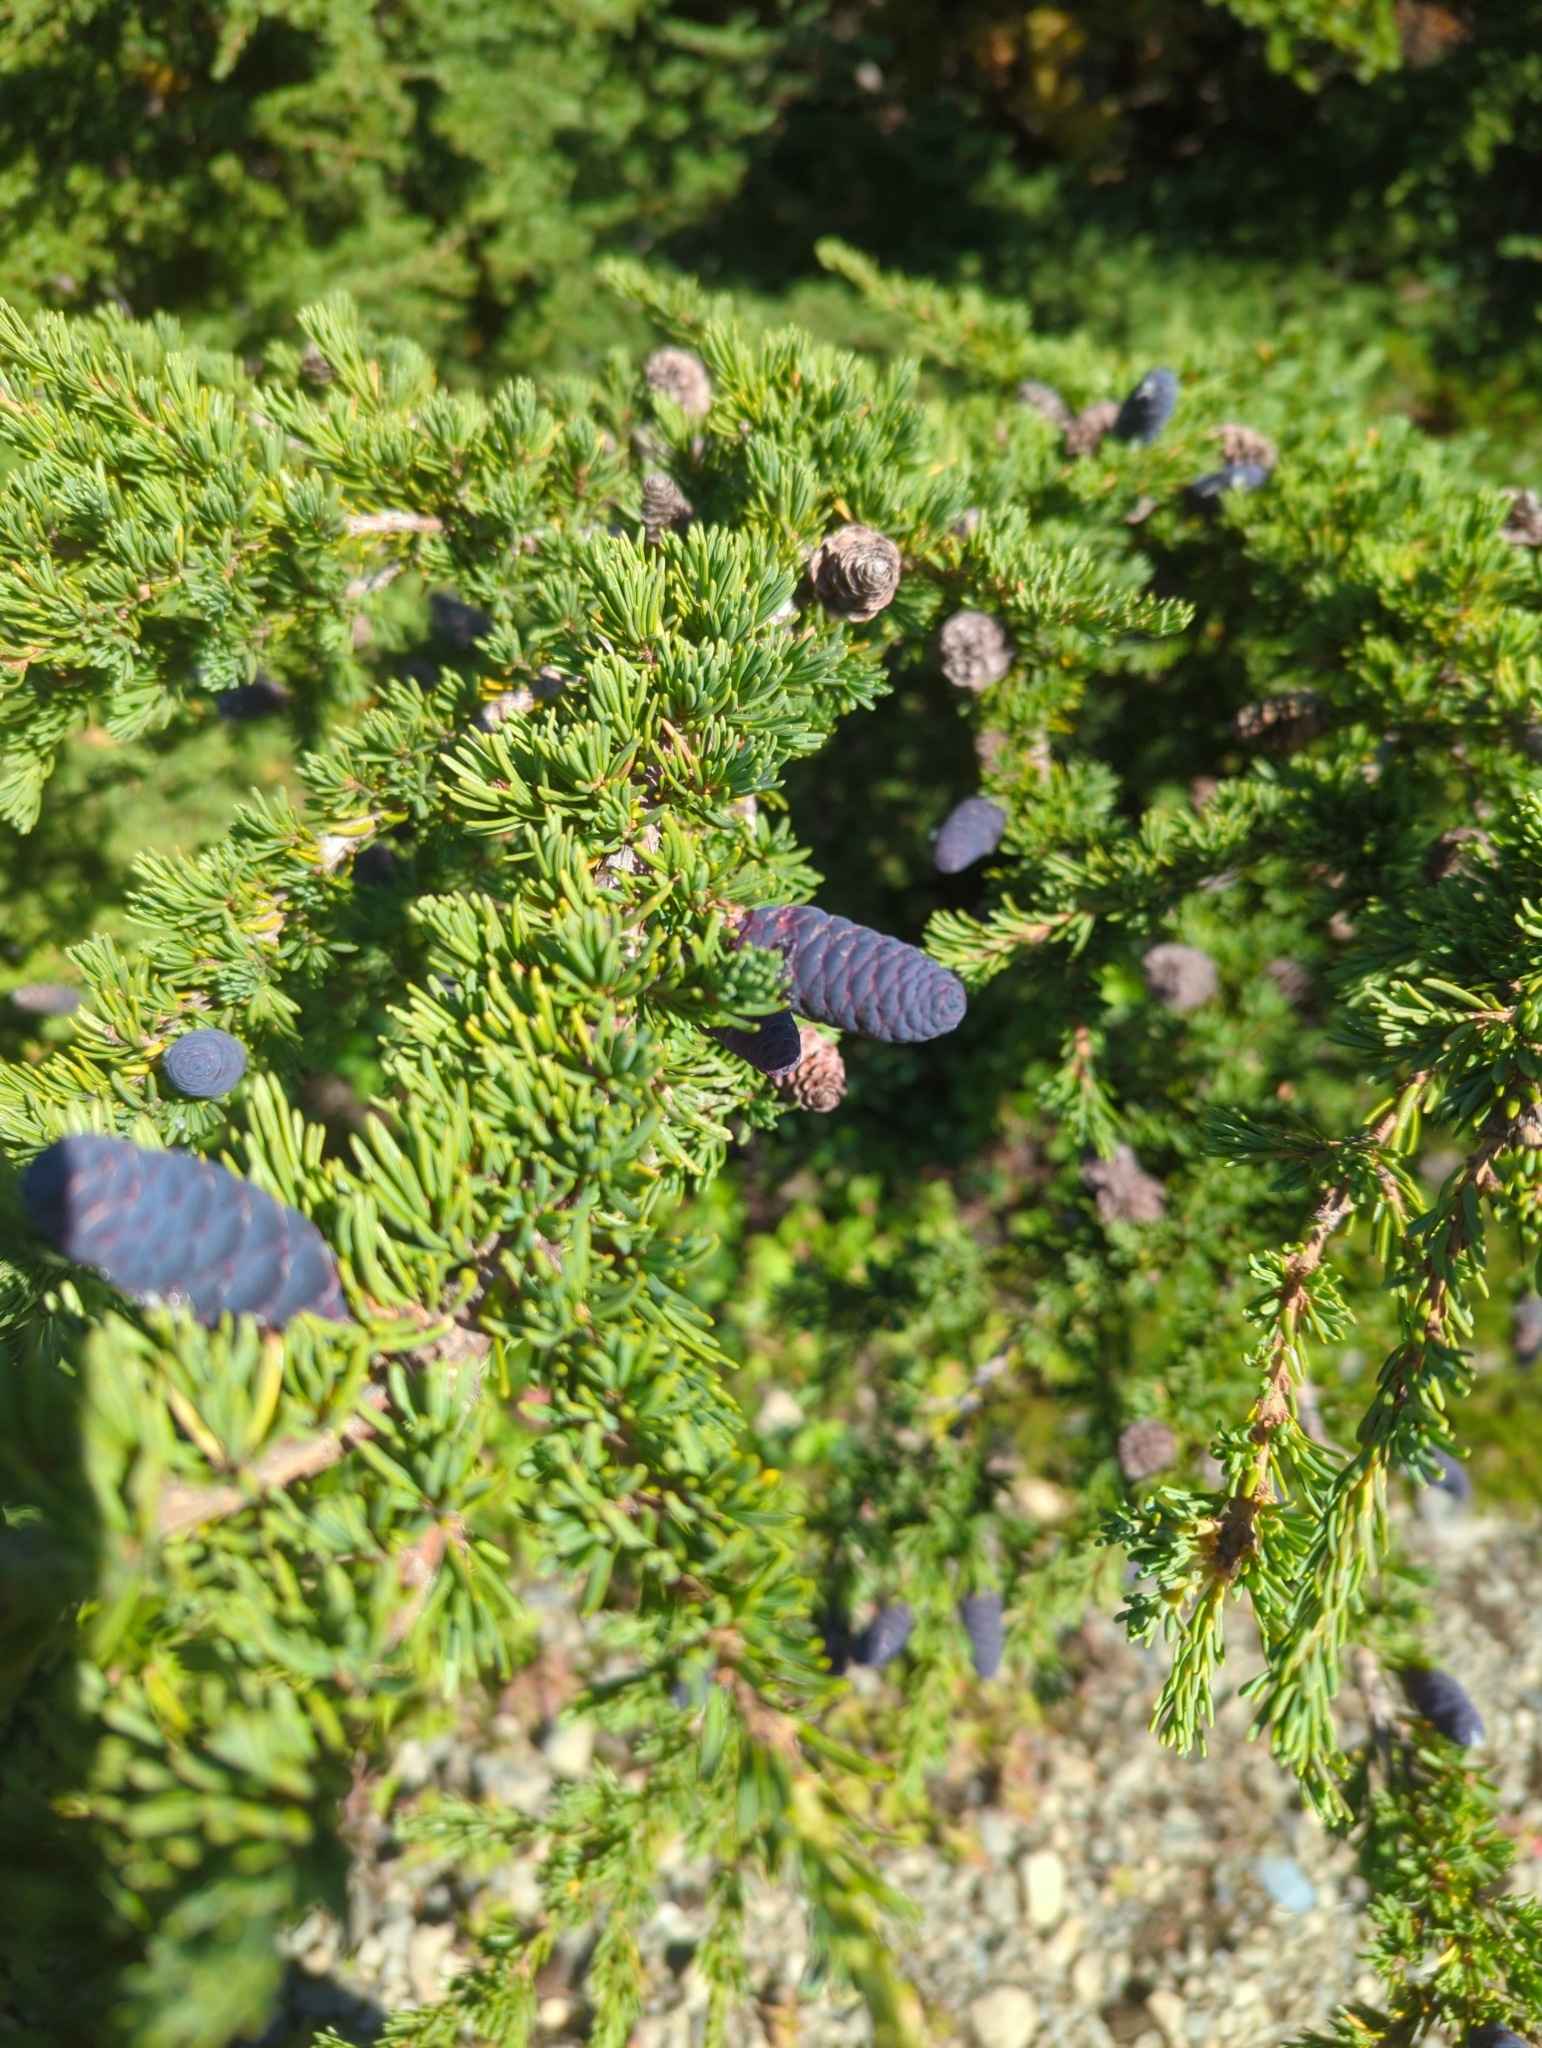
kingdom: Plantae
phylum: Tracheophyta
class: Pinopsida
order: Pinales
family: Pinaceae
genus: Tsuga
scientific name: Tsuga mertensiana
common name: Mountain hemlock
